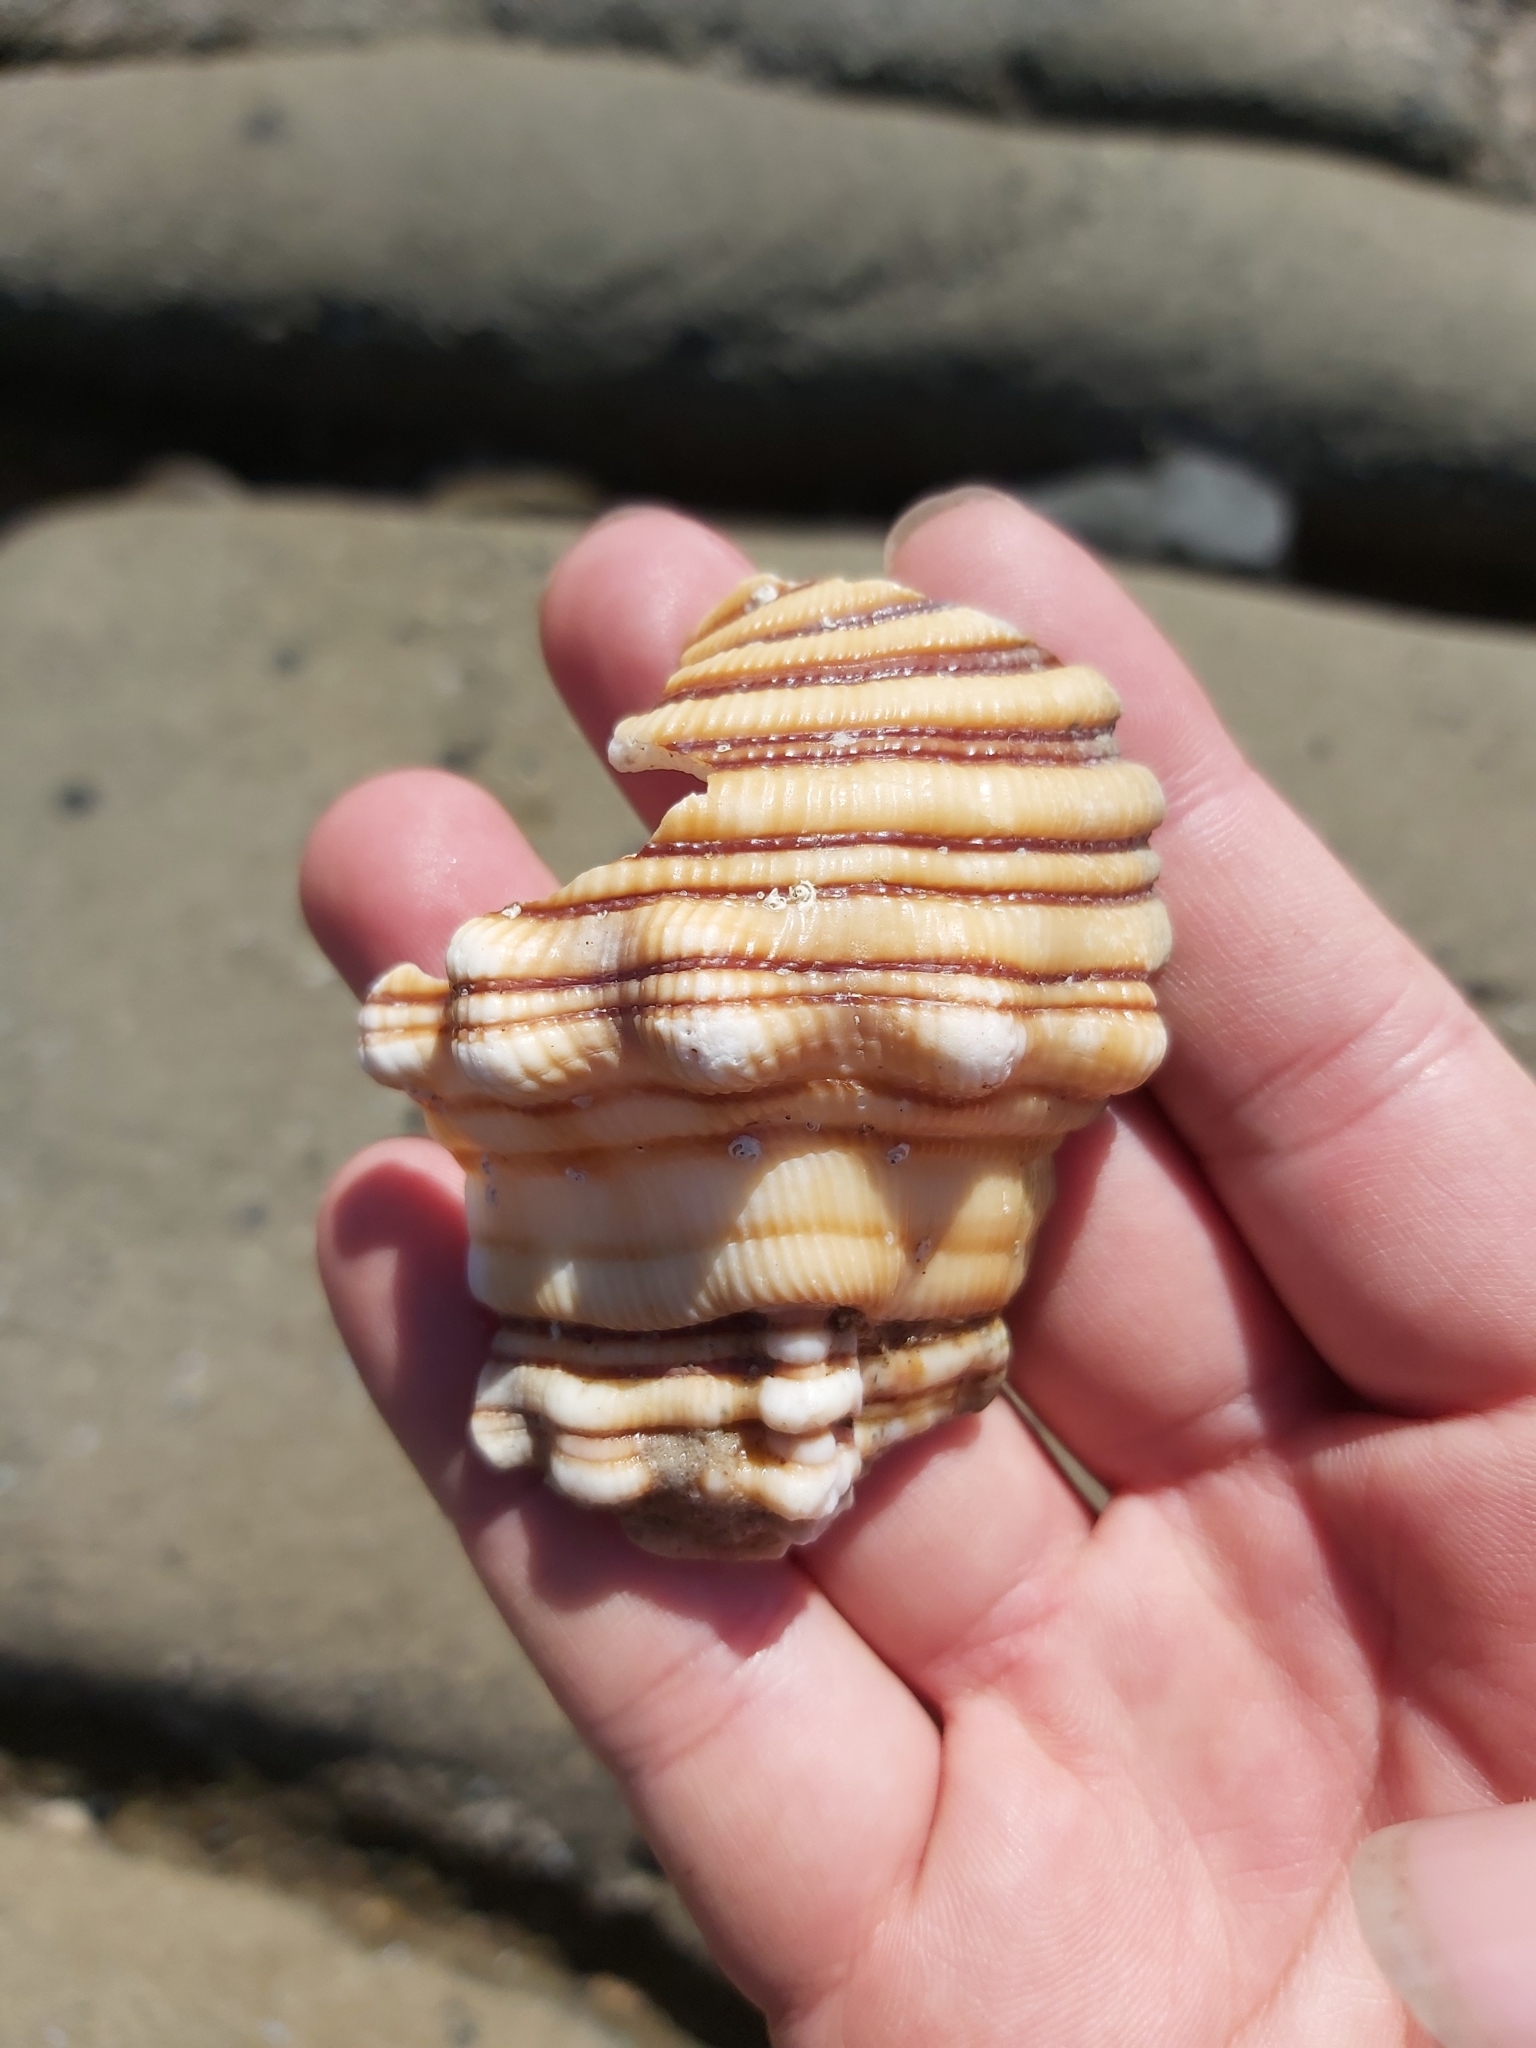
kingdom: Animalia
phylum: Mollusca
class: Gastropoda
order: Littorinimorpha
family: Cymatiidae
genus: Cabestana
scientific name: Cabestana spengleri
